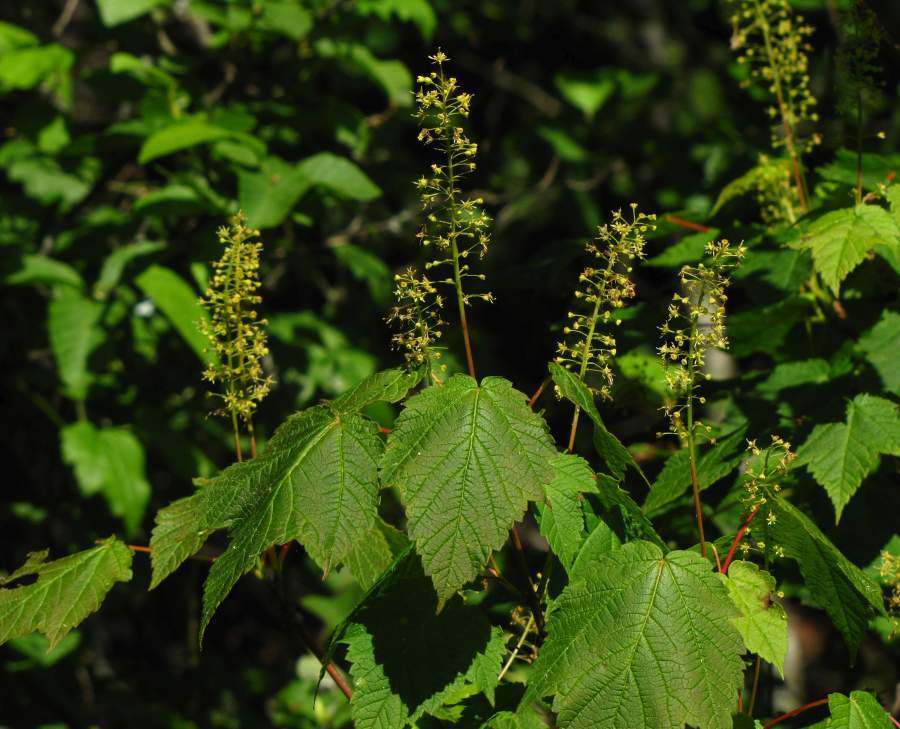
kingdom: Plantae
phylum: Tracheophyta
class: Magnoliopsida
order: Sapindales
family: Sapindaceae
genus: Acer
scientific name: Acer spicatum
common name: Mountain maple
